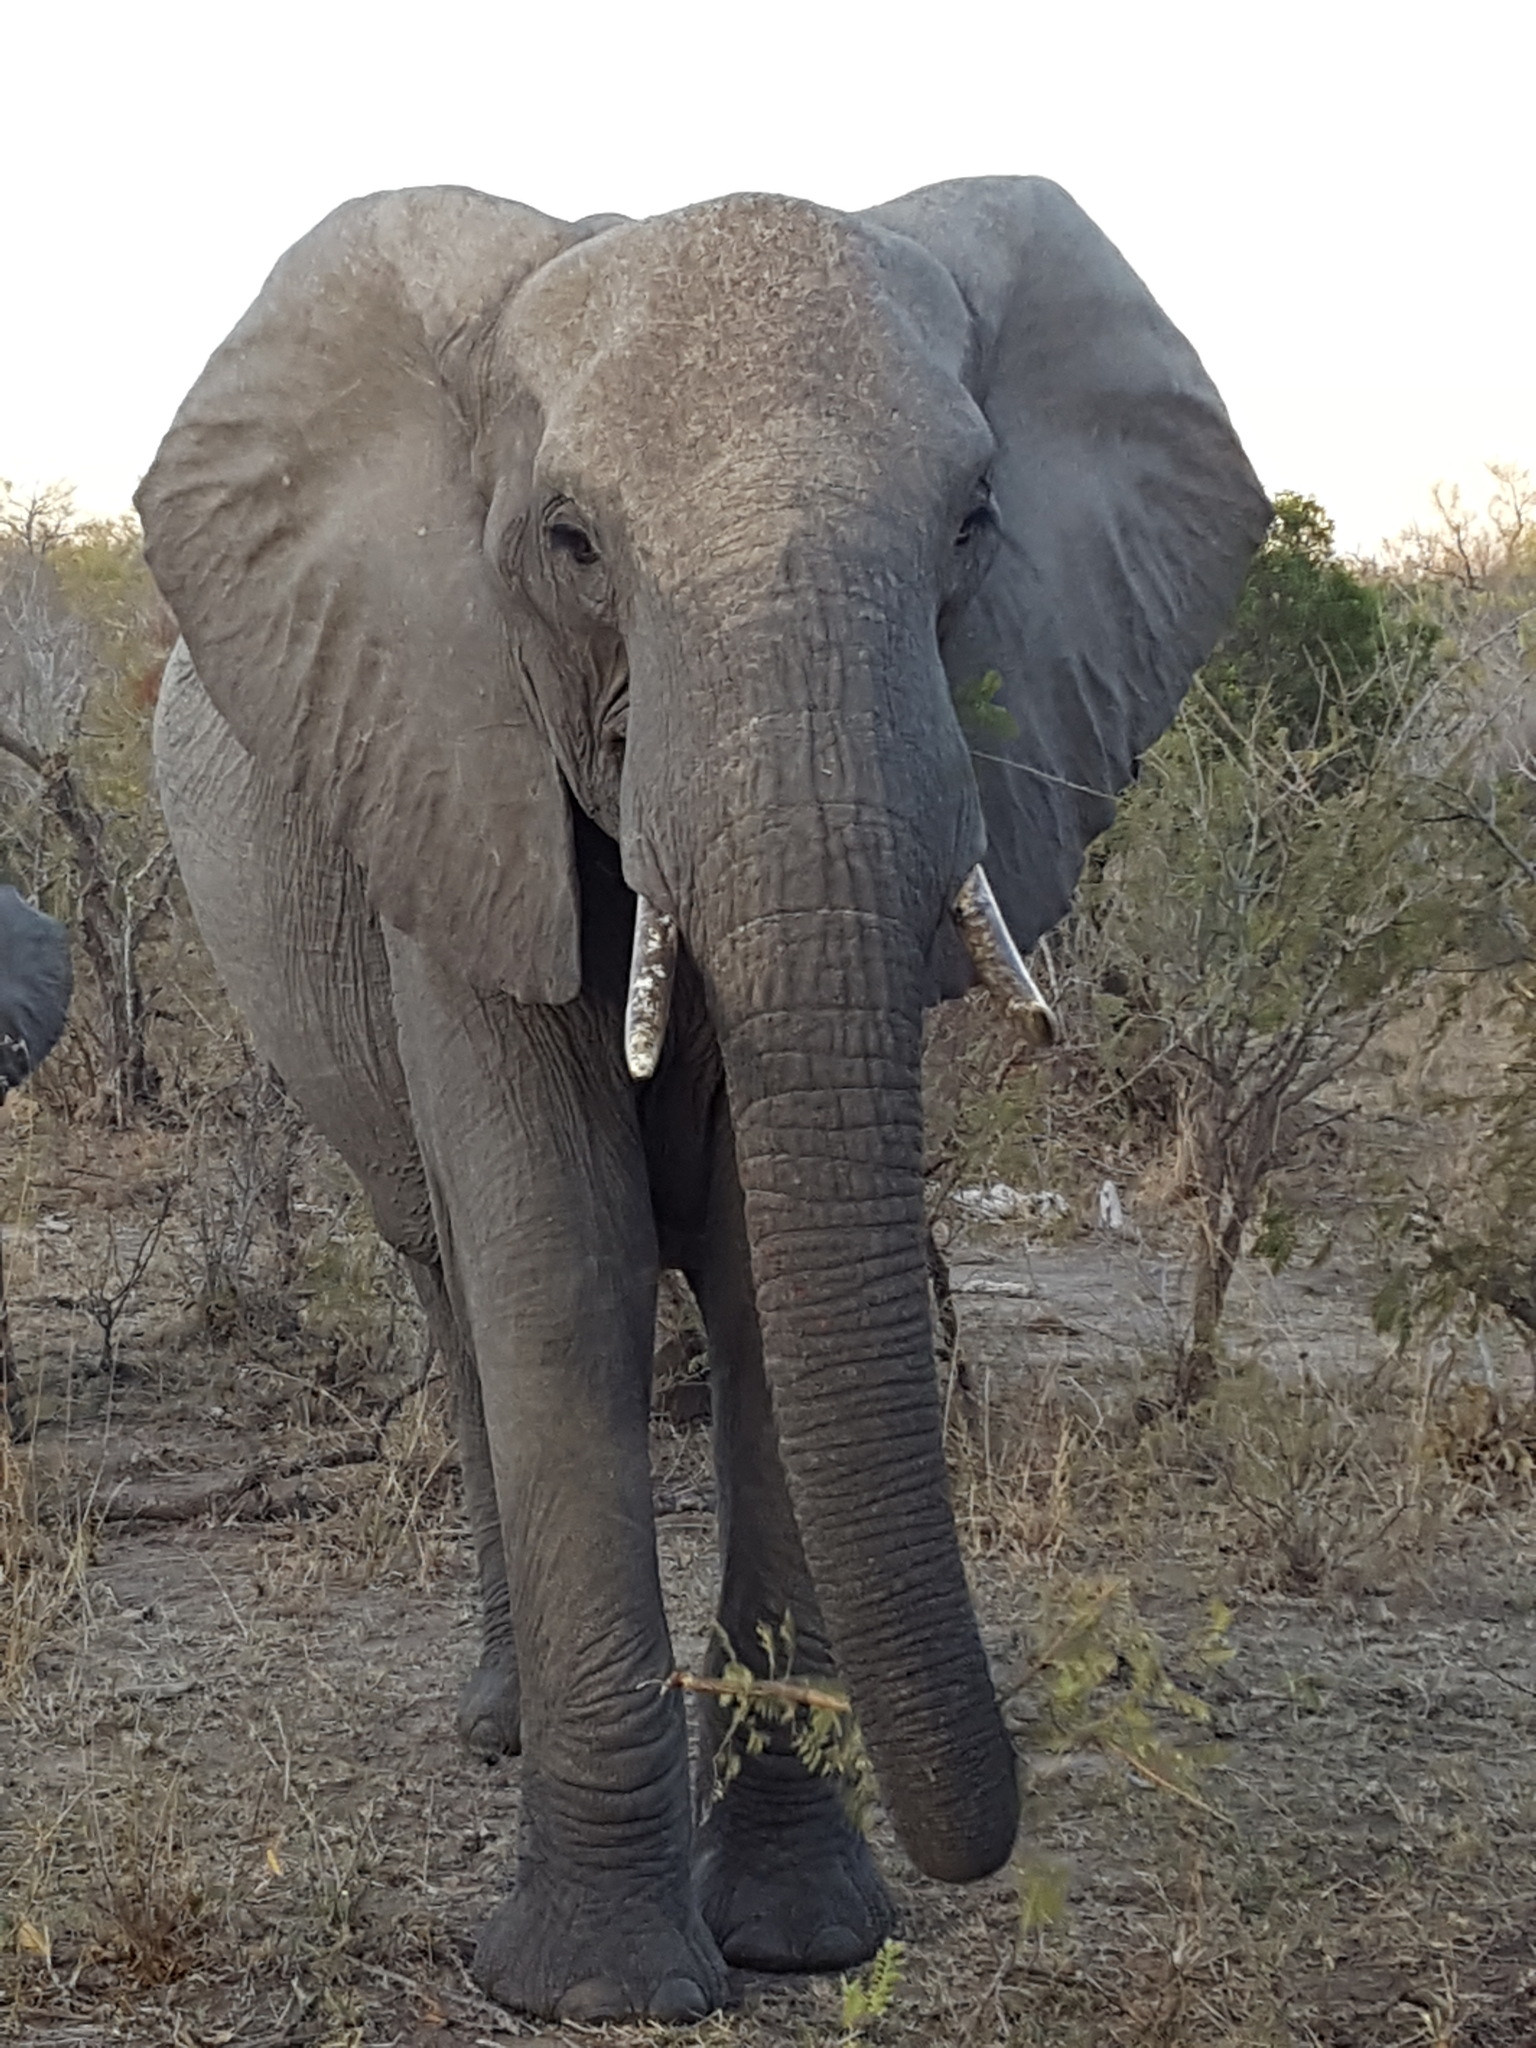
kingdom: Animalia
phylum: Chordata
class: Mammalia
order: Proboscidea
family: Elephantidae
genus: Loxodonta
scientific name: Loxodonta africana
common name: African elephant
